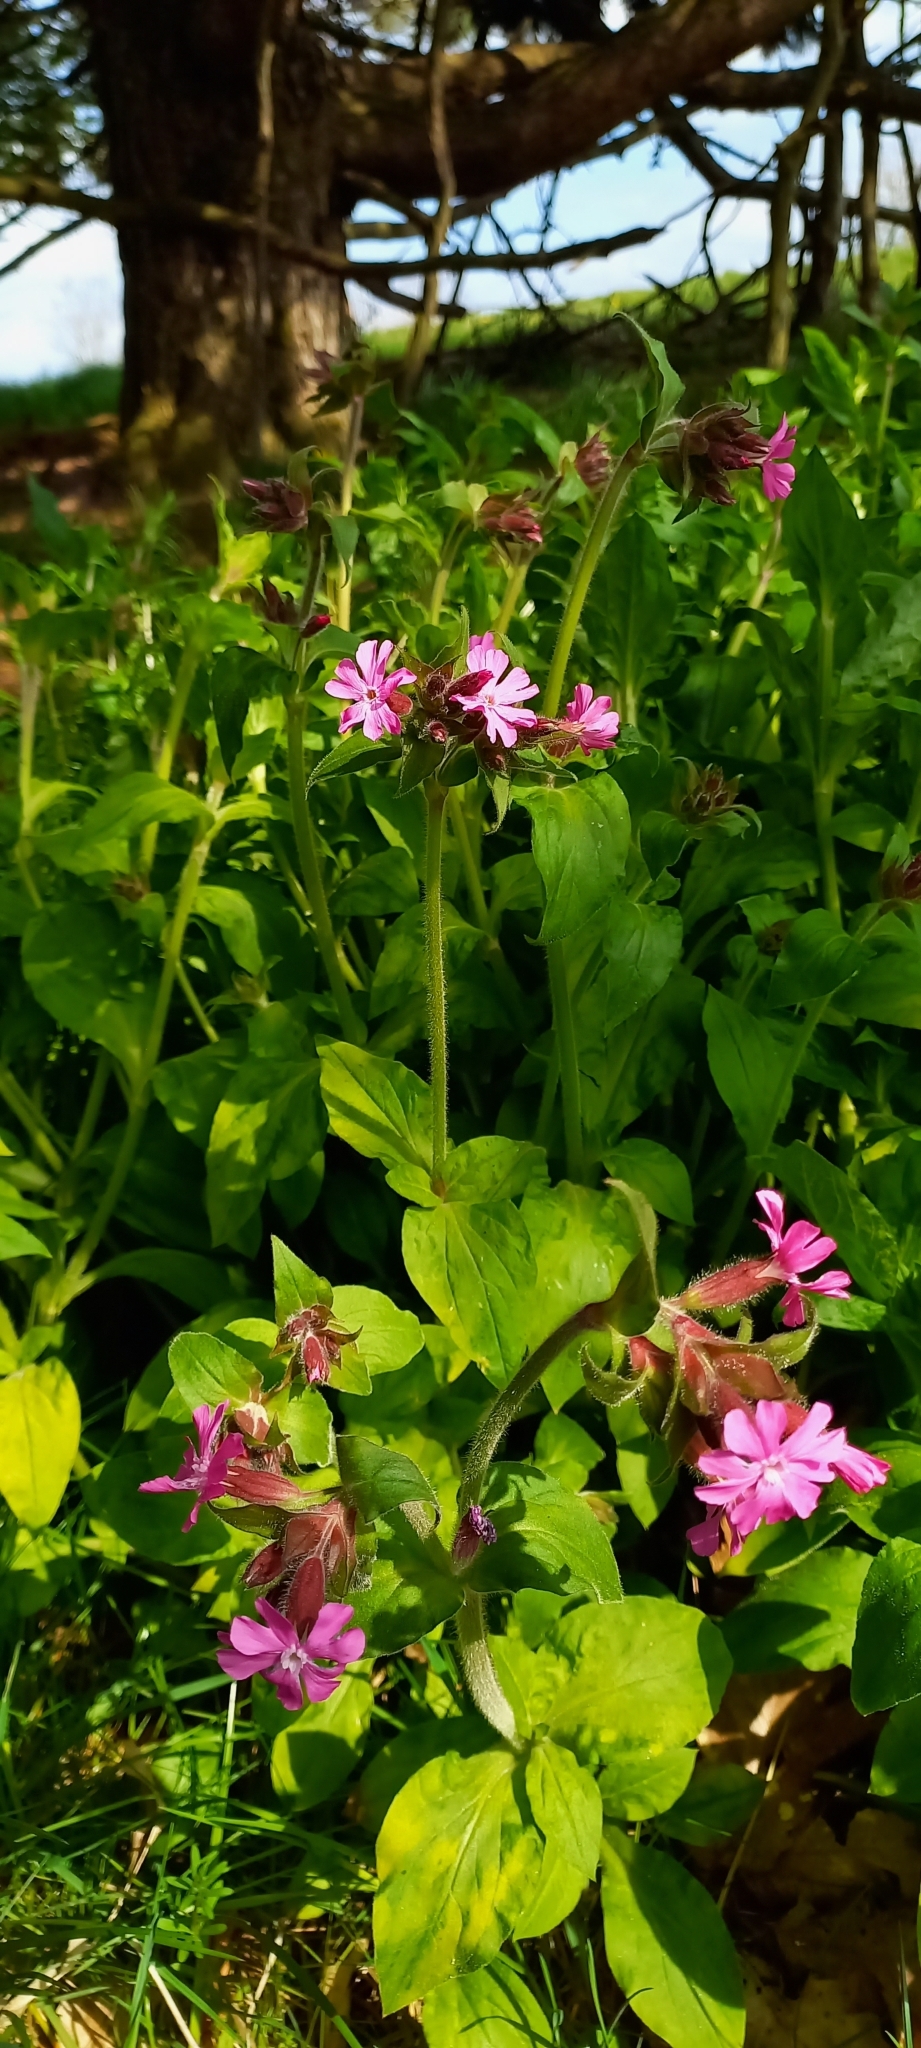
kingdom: Plantae
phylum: Tracheophyta
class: Magnoliopsida
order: Caryophyllales
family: Caryophyllaceae
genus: Silene
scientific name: Silene dioica
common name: Red campion
